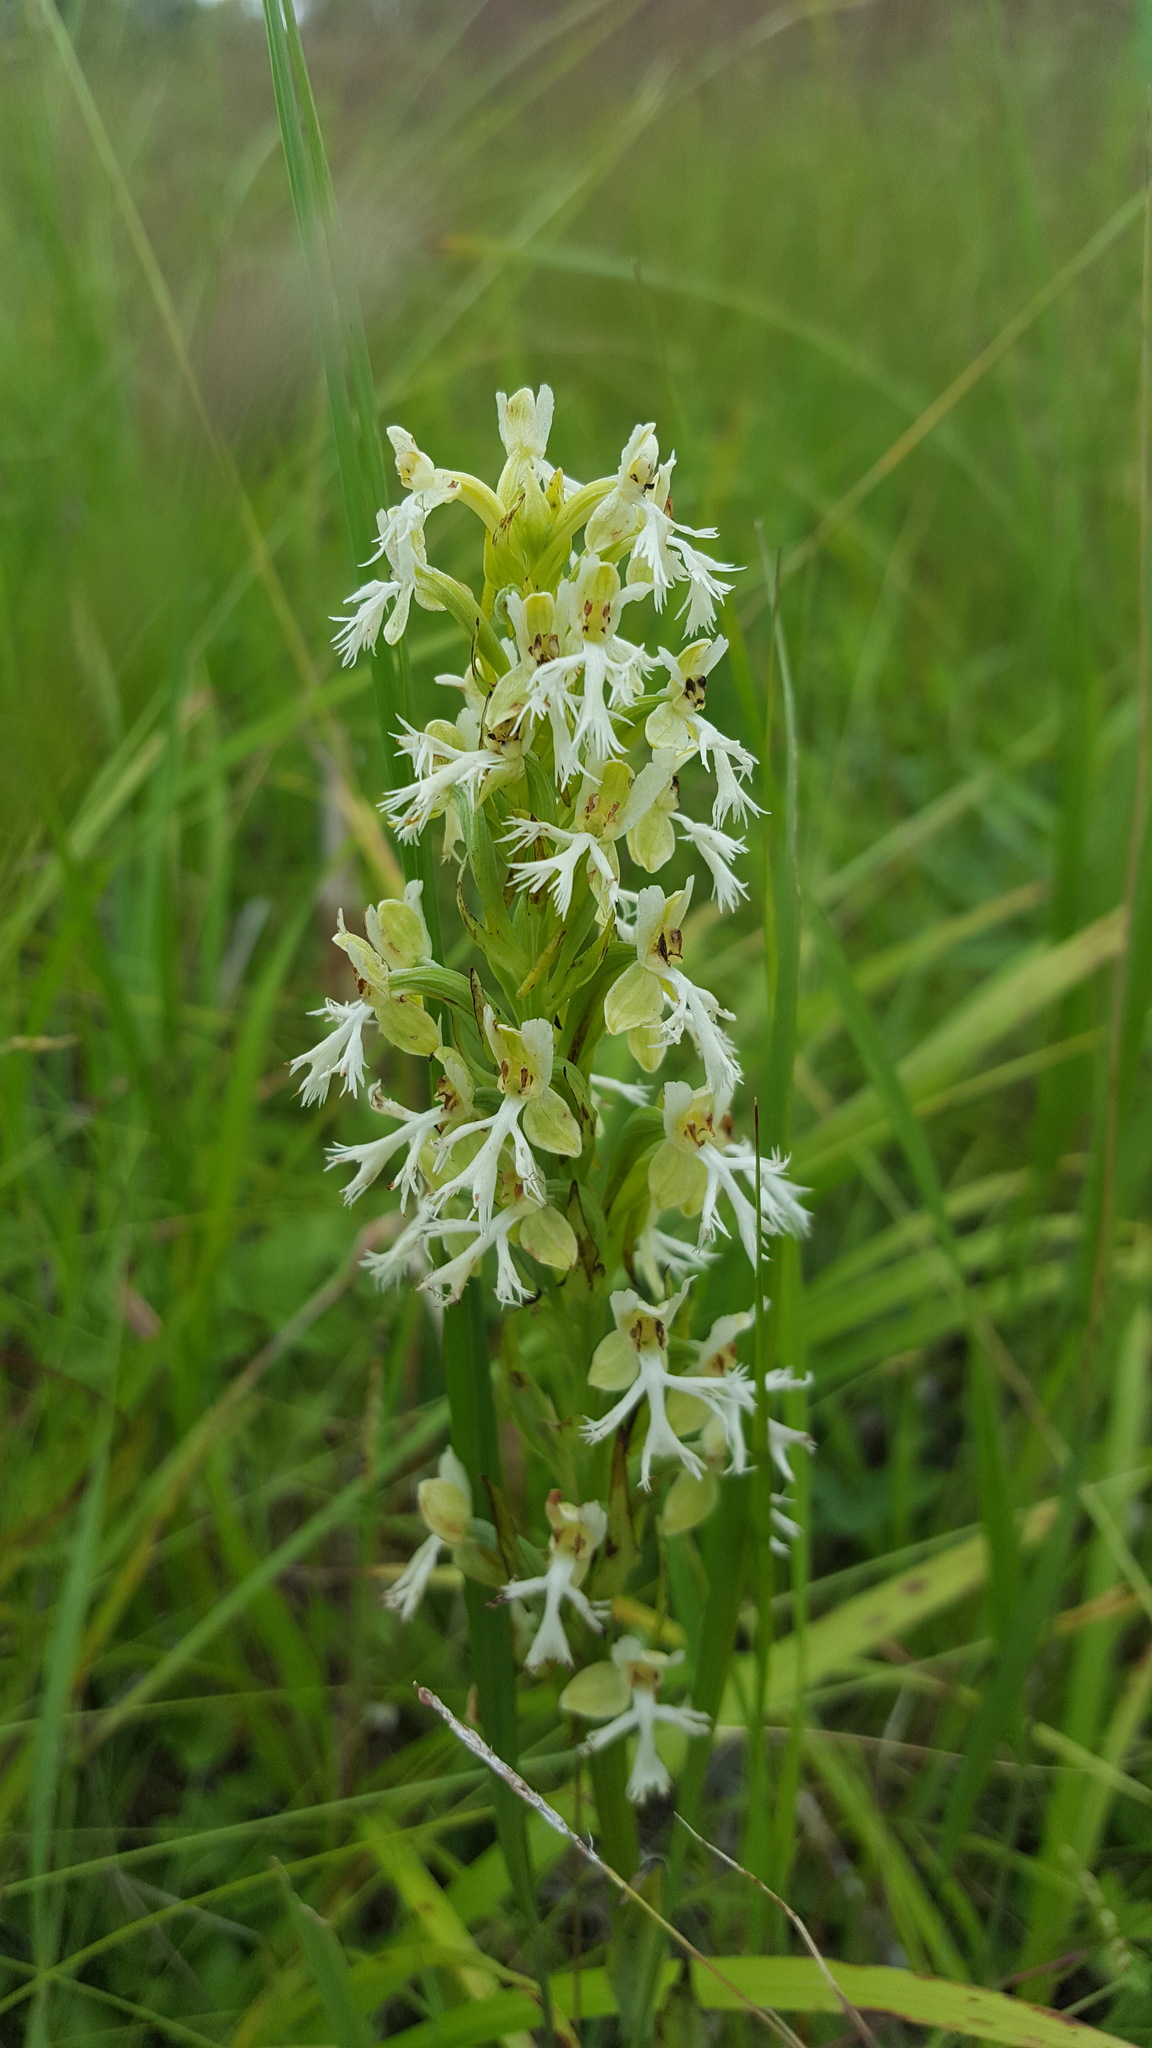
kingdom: Plantae
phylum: Tracheophyta
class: Liliopsida
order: Asparagales
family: Orchidaceae
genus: Platanthera
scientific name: Platanthera lacera
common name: Green fringed orchid
